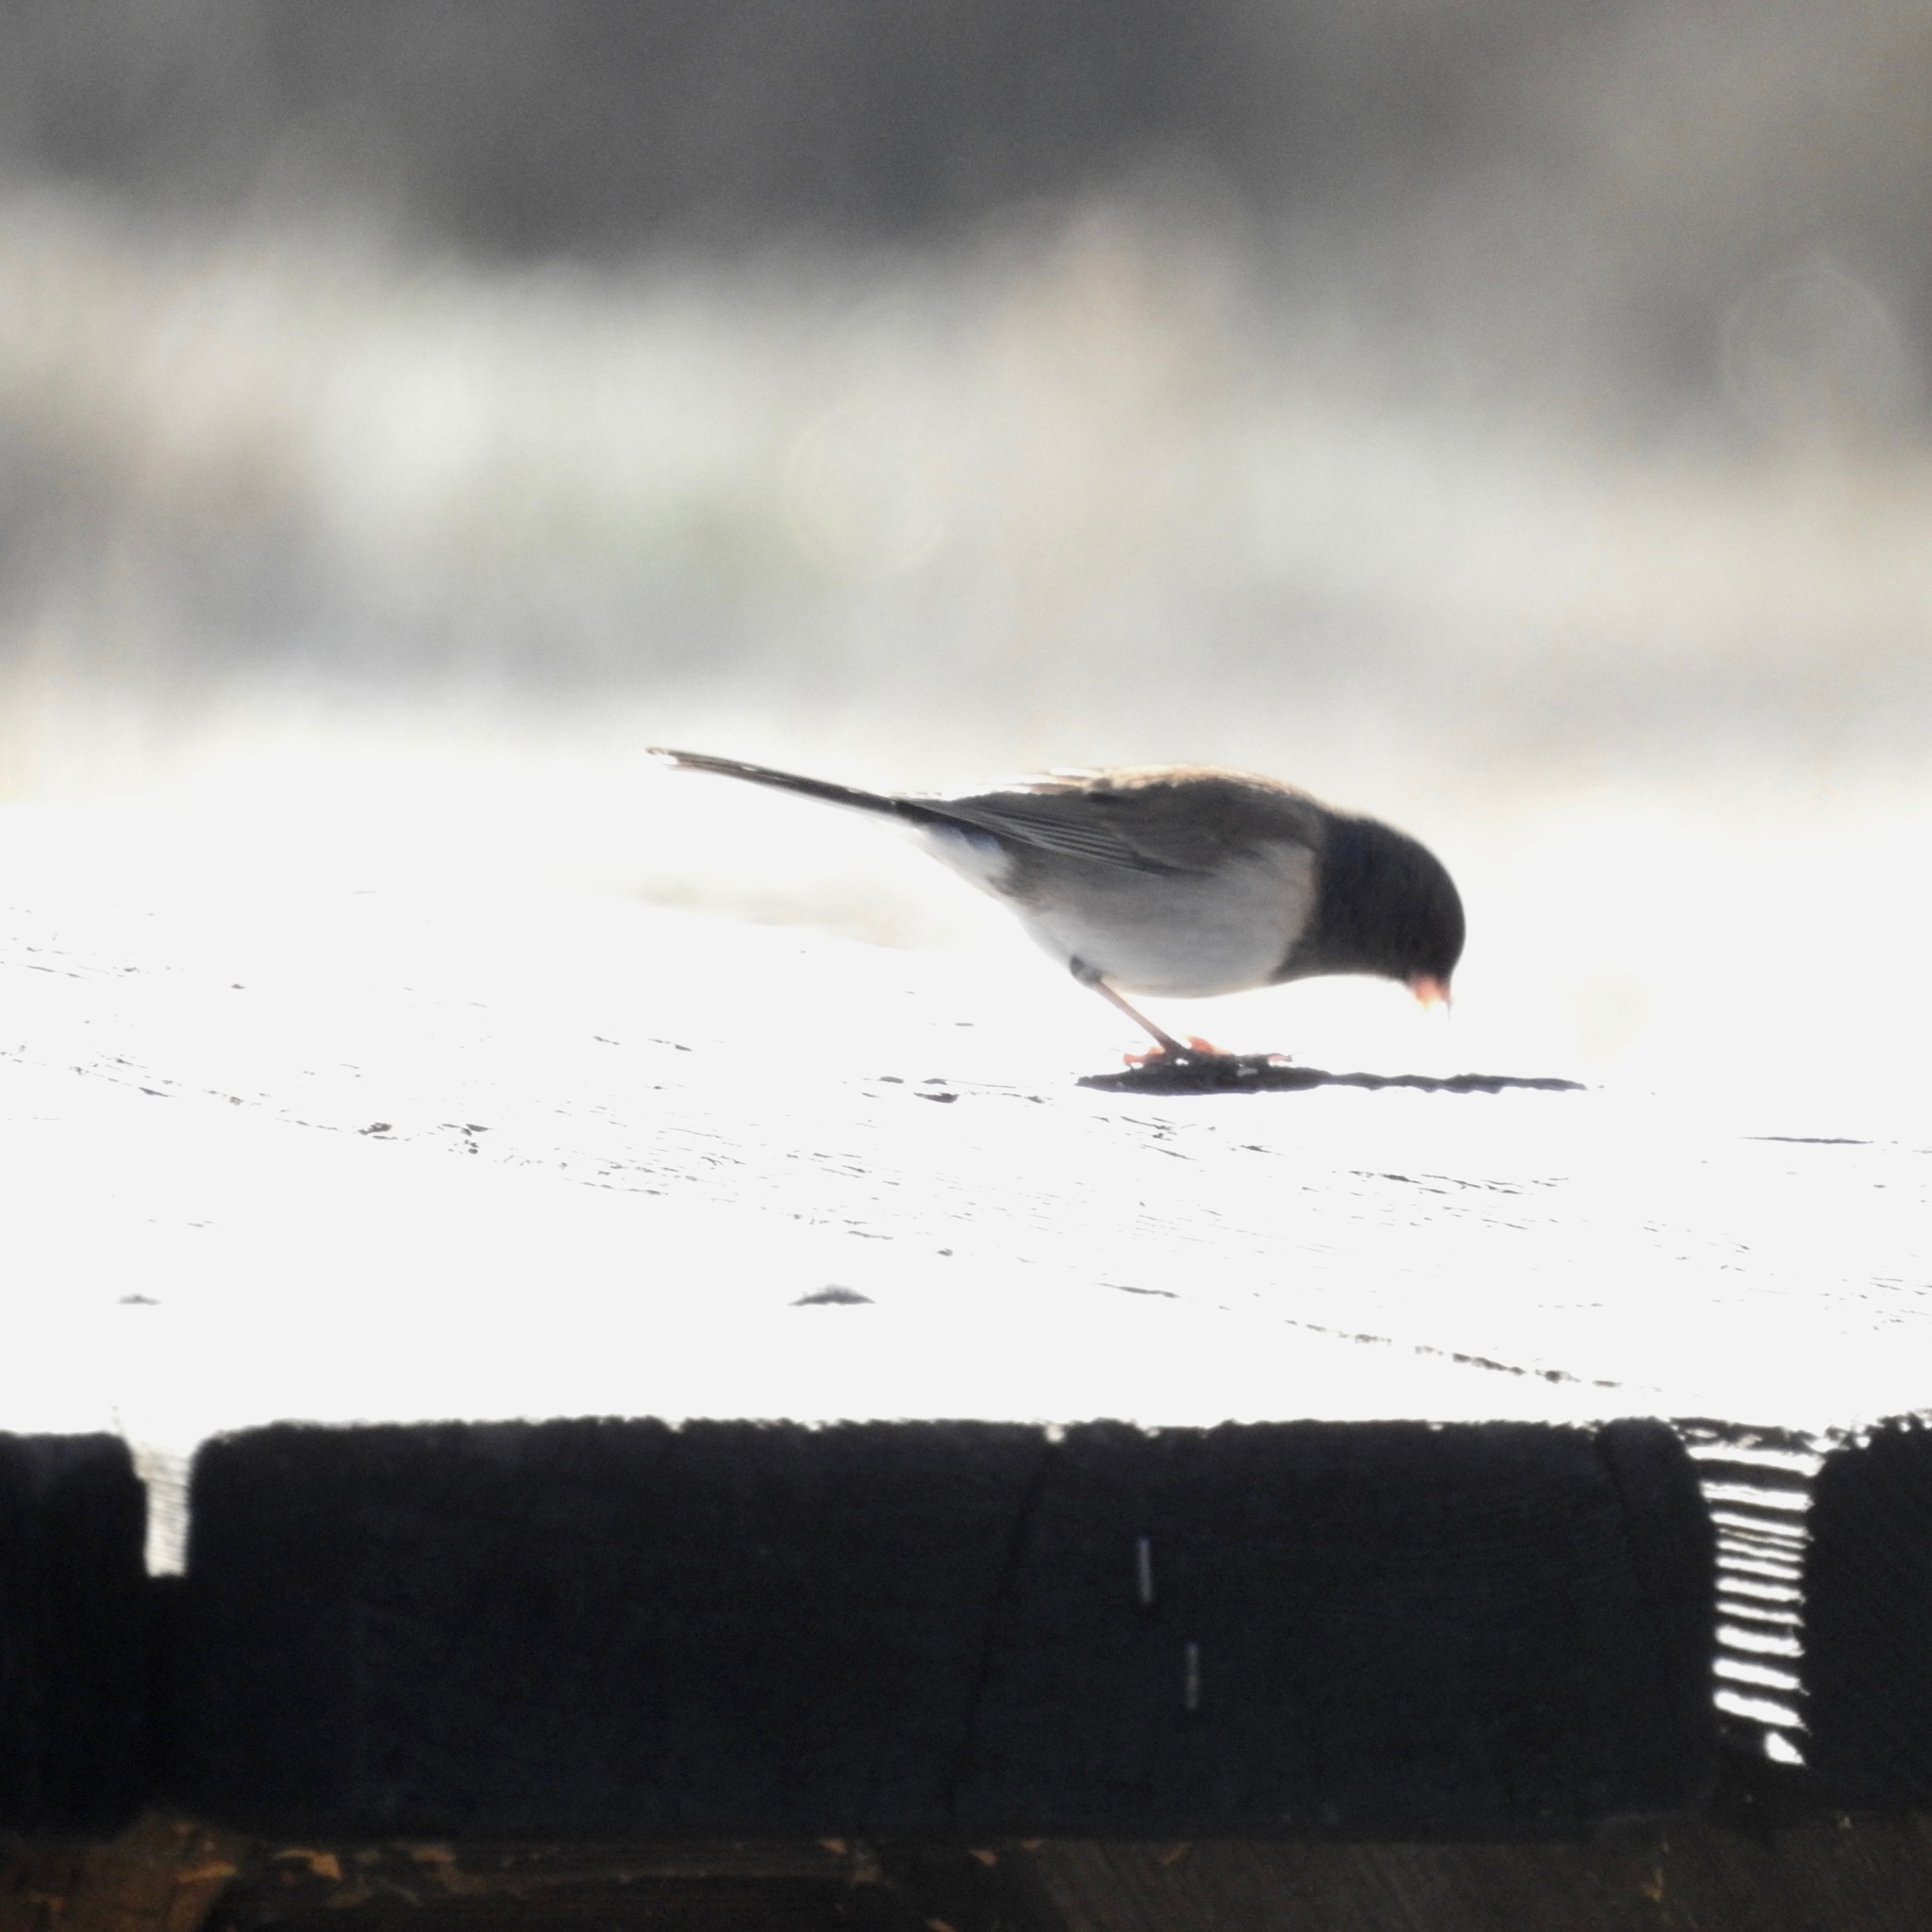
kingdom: Animalia
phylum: Chordata
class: Aves
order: Passeriformes
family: Passerellidae
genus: Junco
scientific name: Junco hyemalis
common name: Dark-eyed junco
